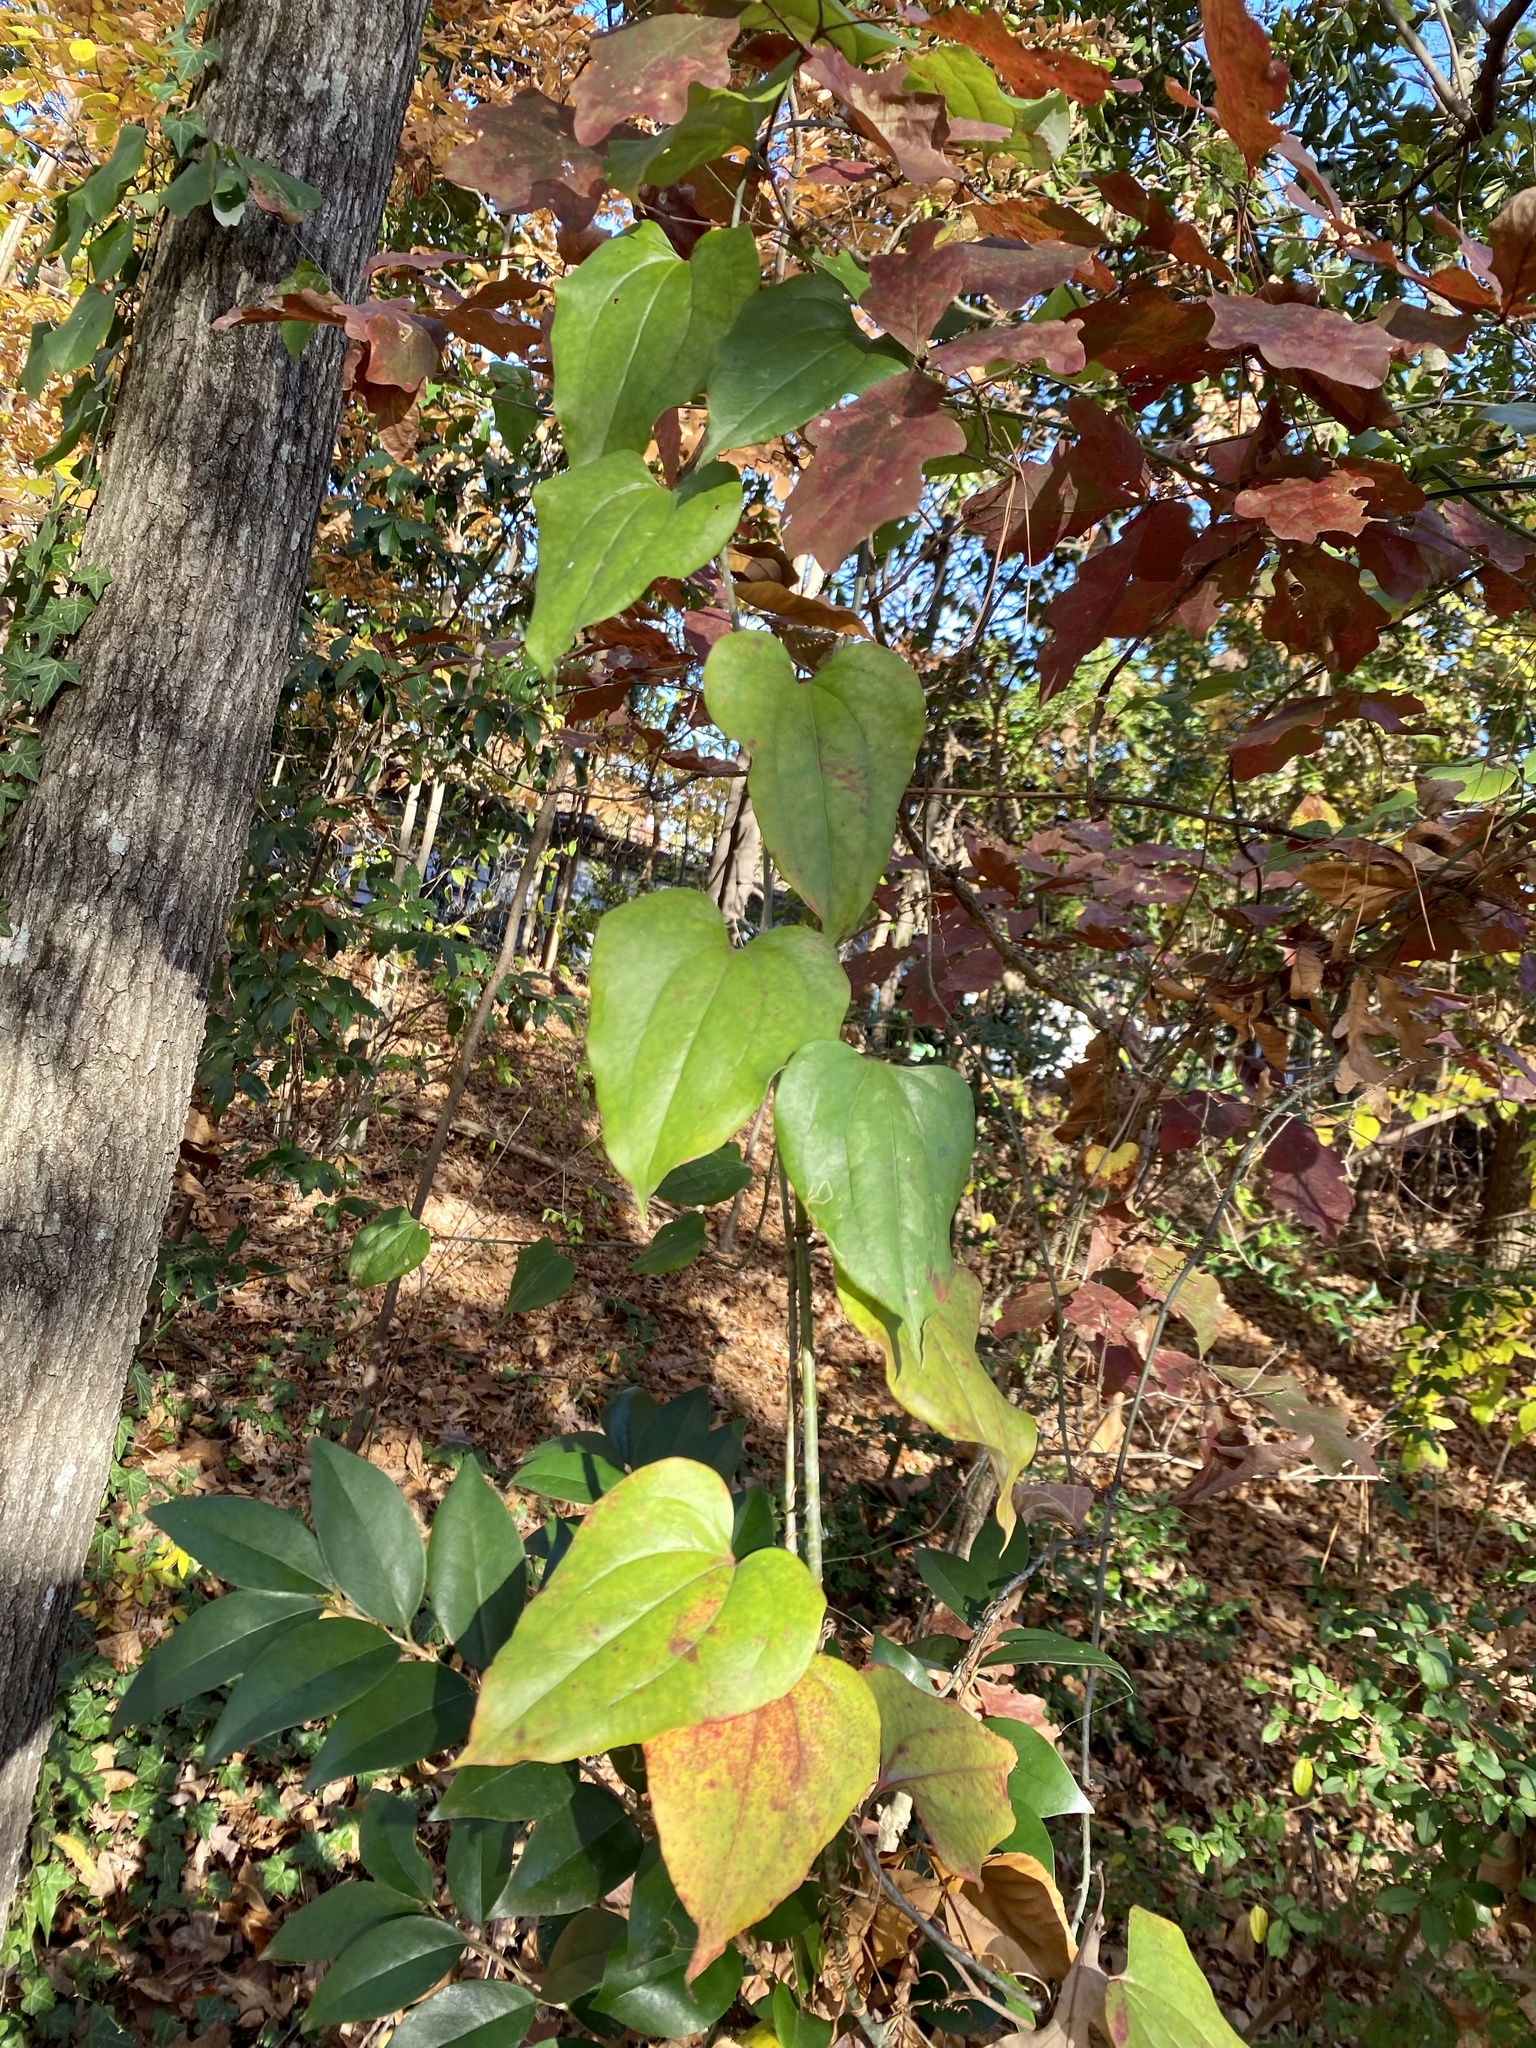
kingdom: Plantae
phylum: Tracheophyta
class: Liliopsida
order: Liliales
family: Smilacaceae
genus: Smilax
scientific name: Smilax glauca
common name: Cat greenbrier
